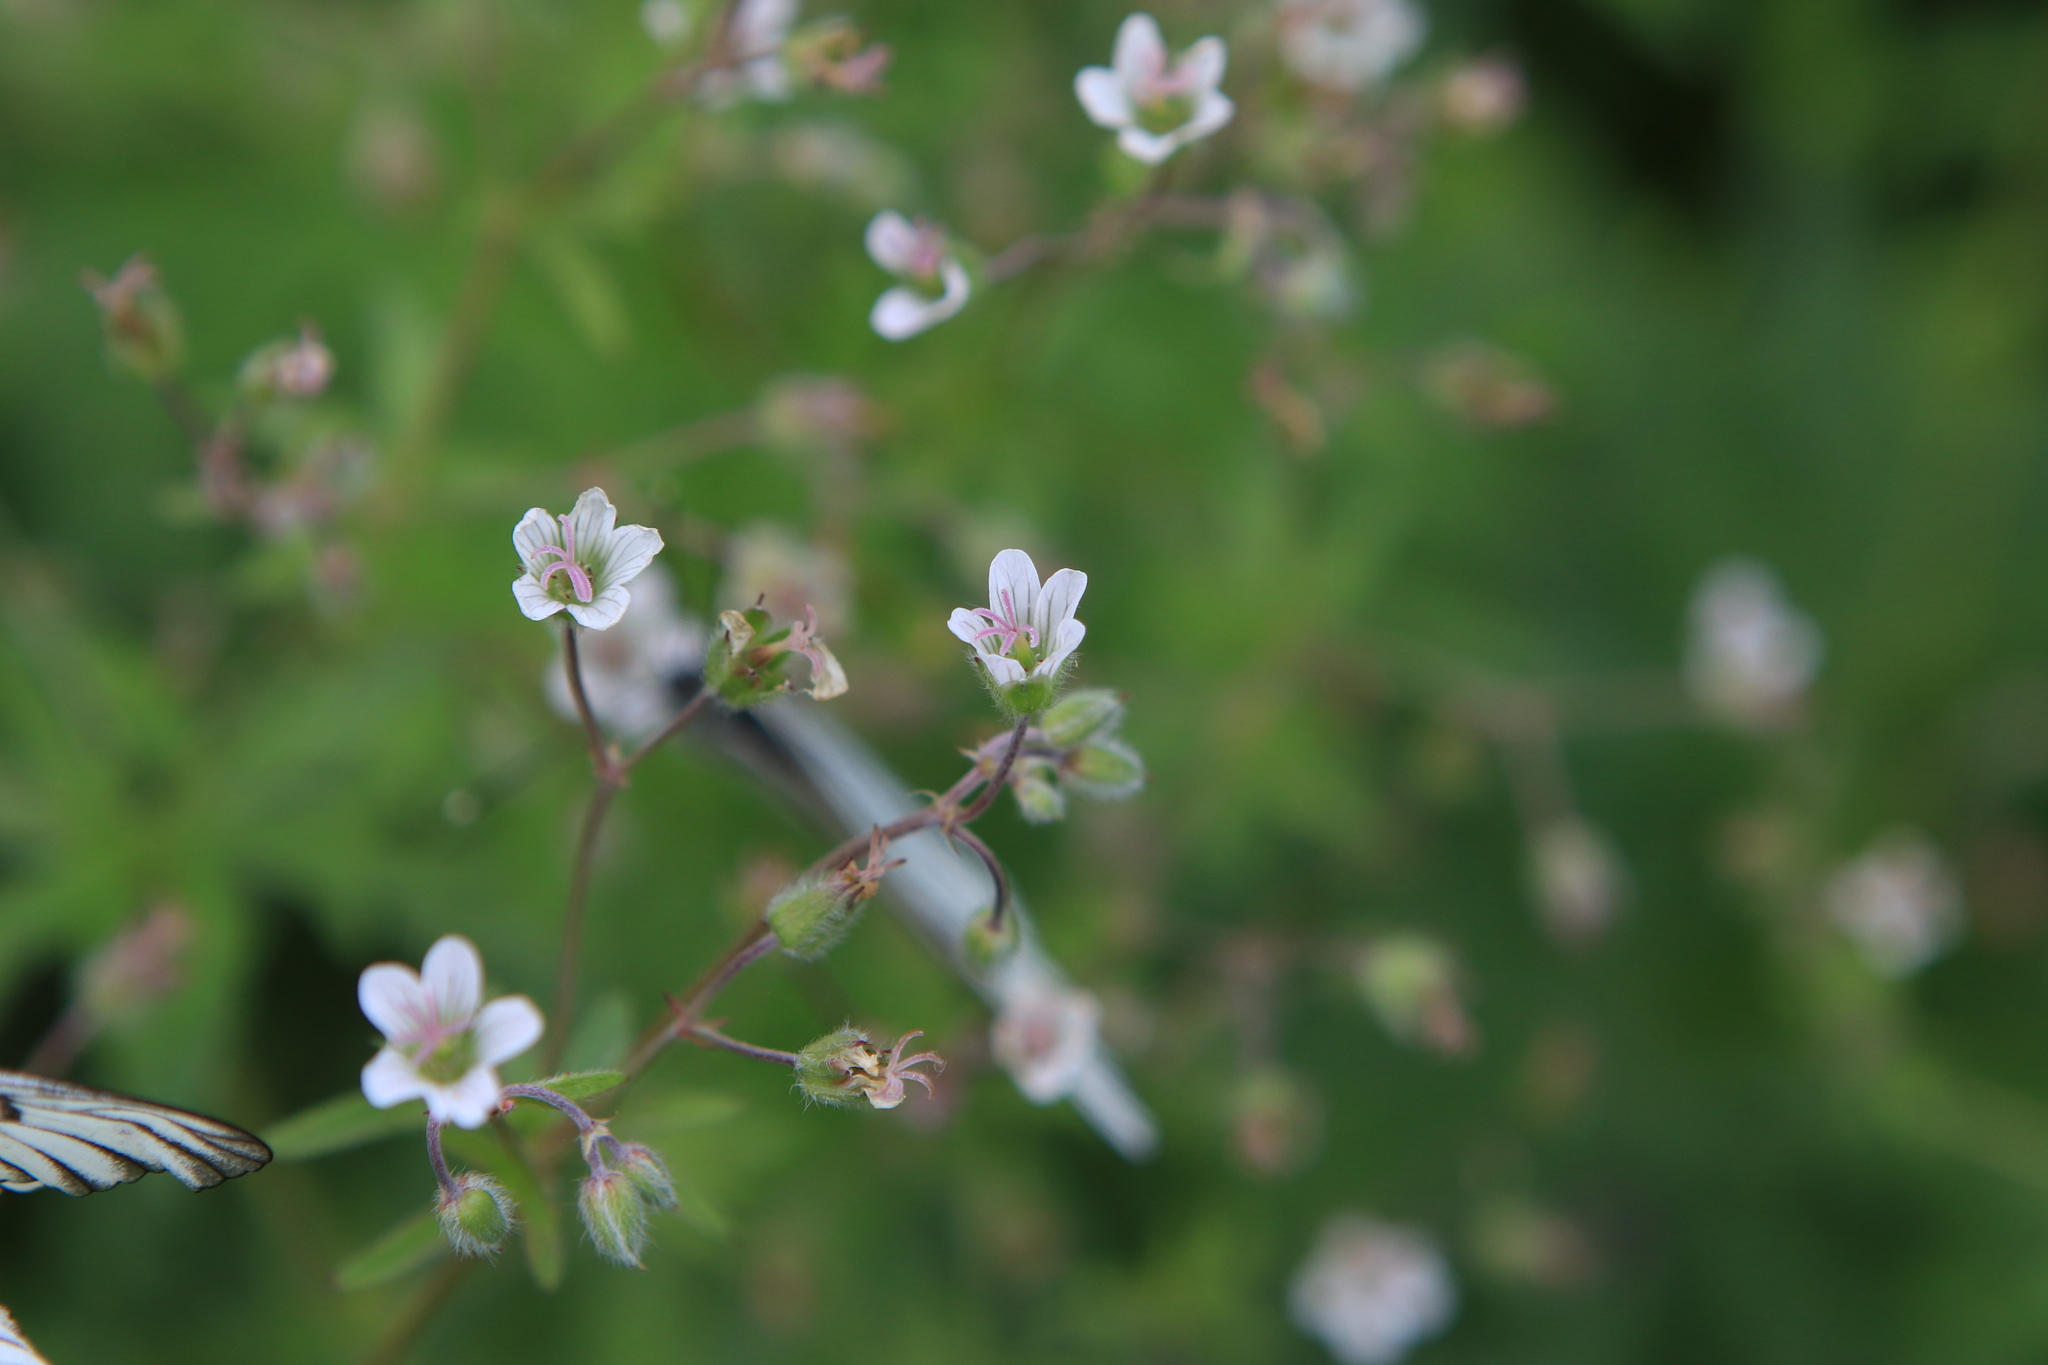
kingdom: Plantae
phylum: Tracheophyta
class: Magnoliopsida
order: Geraniales
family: Geraniaceae
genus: Geranium
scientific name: Geranium pseudosibiricum
